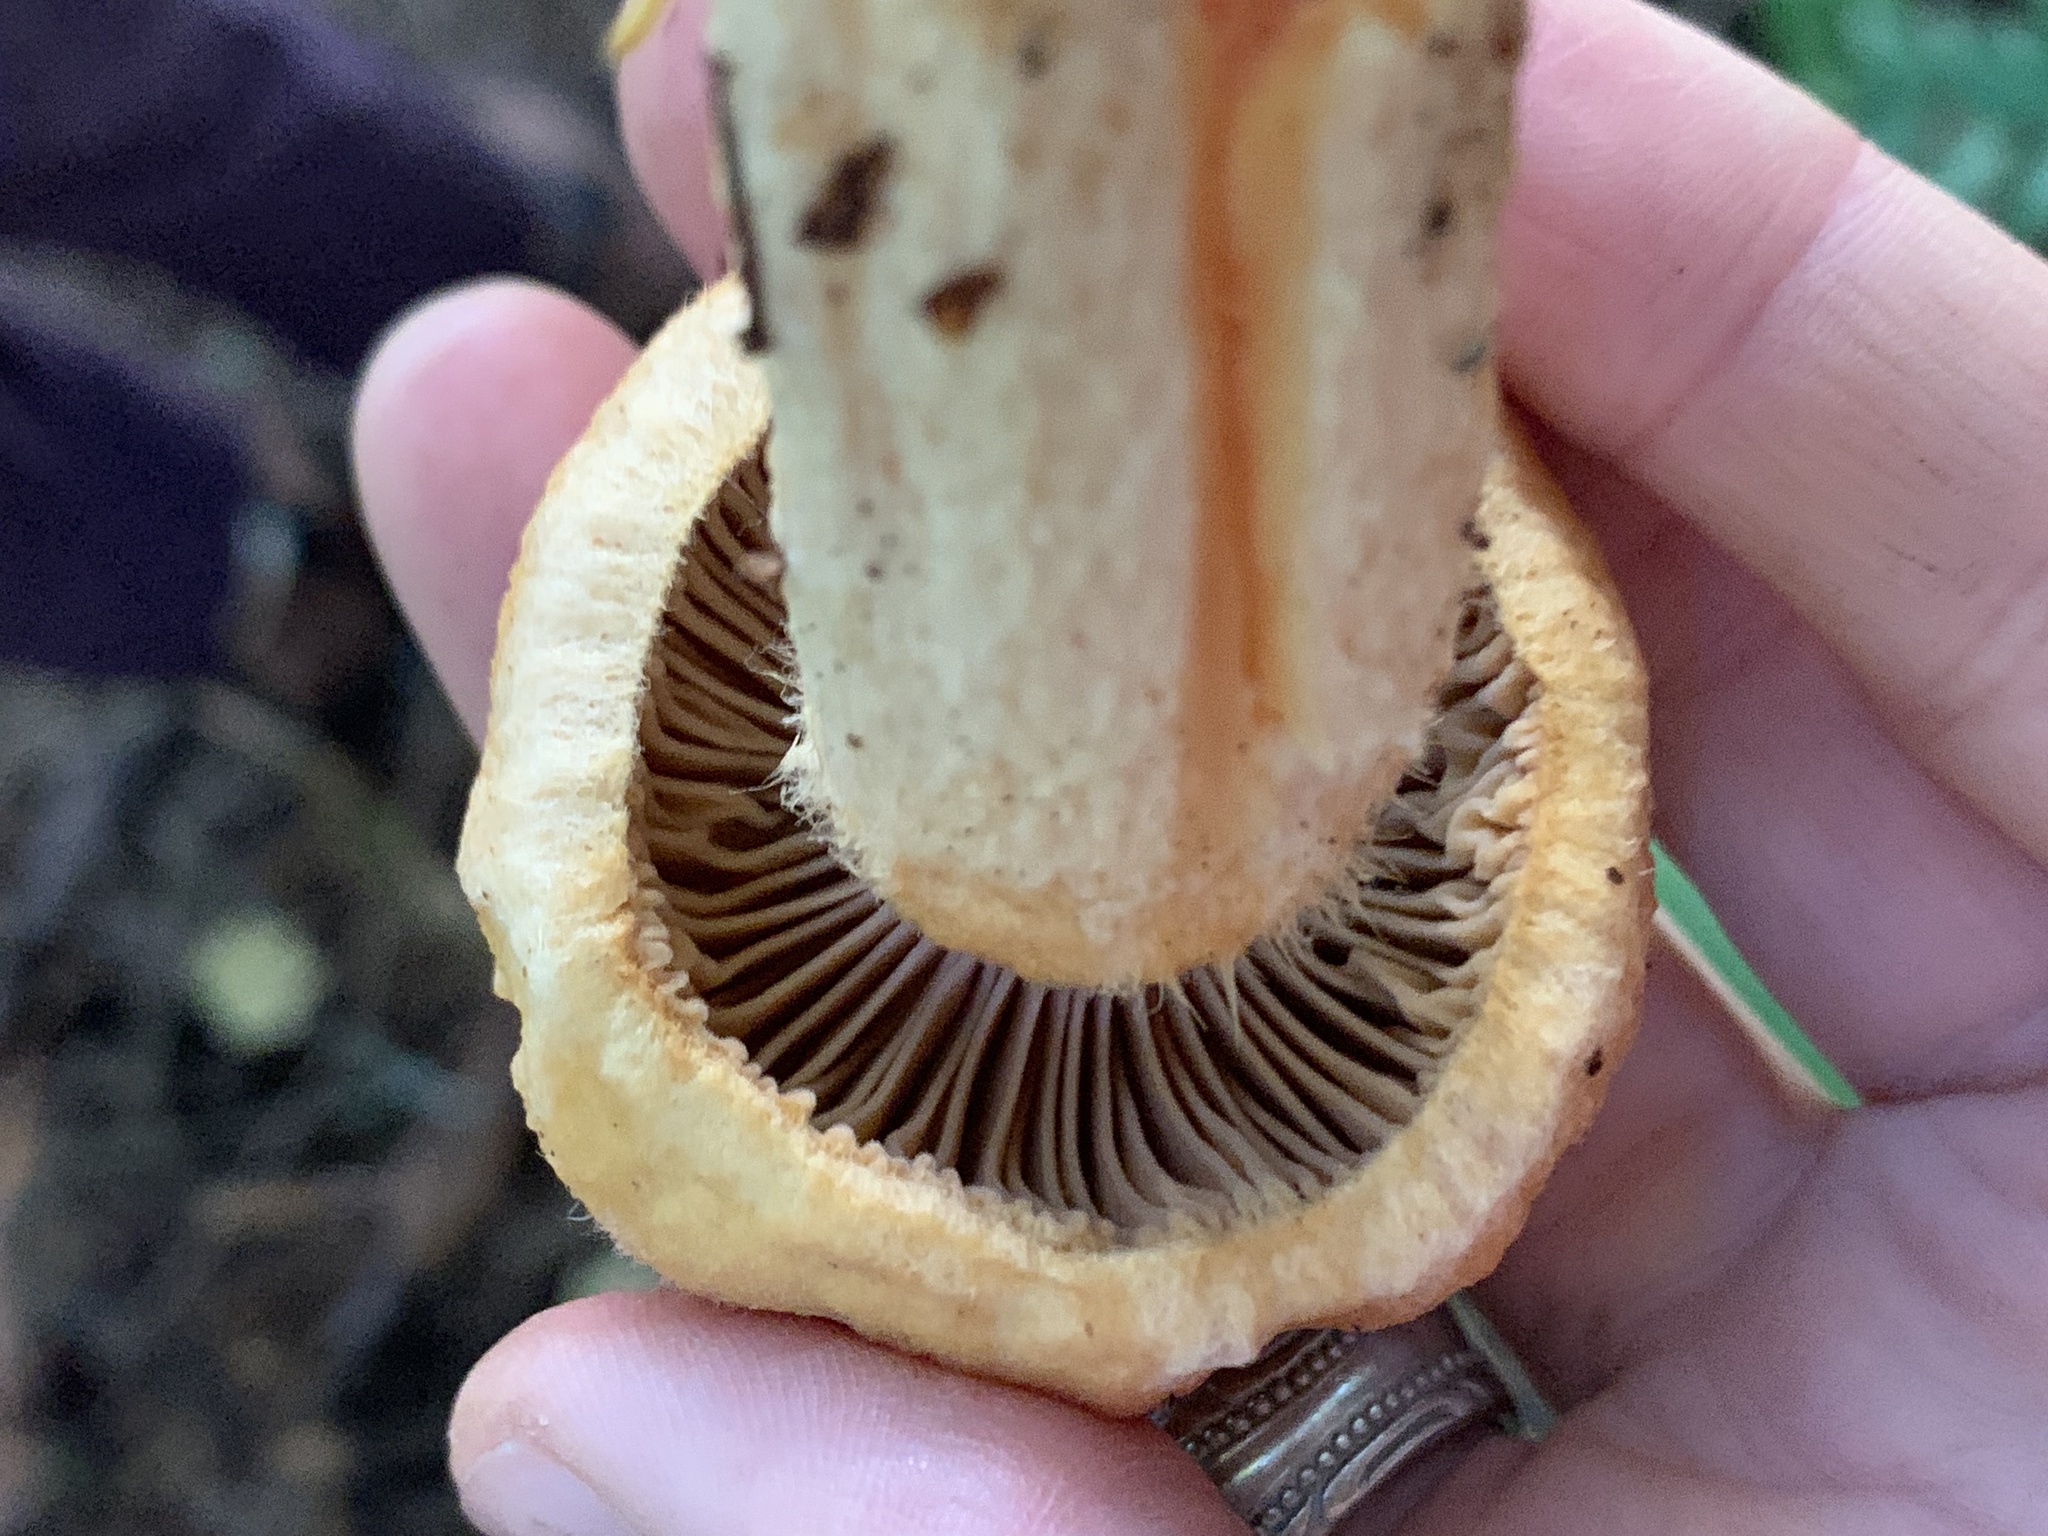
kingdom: Fungi
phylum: Basidiomycota
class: Agaricomycetes
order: Boletales
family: Gomphidiaceae
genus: Chroogomphus
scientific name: Chroogomphus tomentosus
